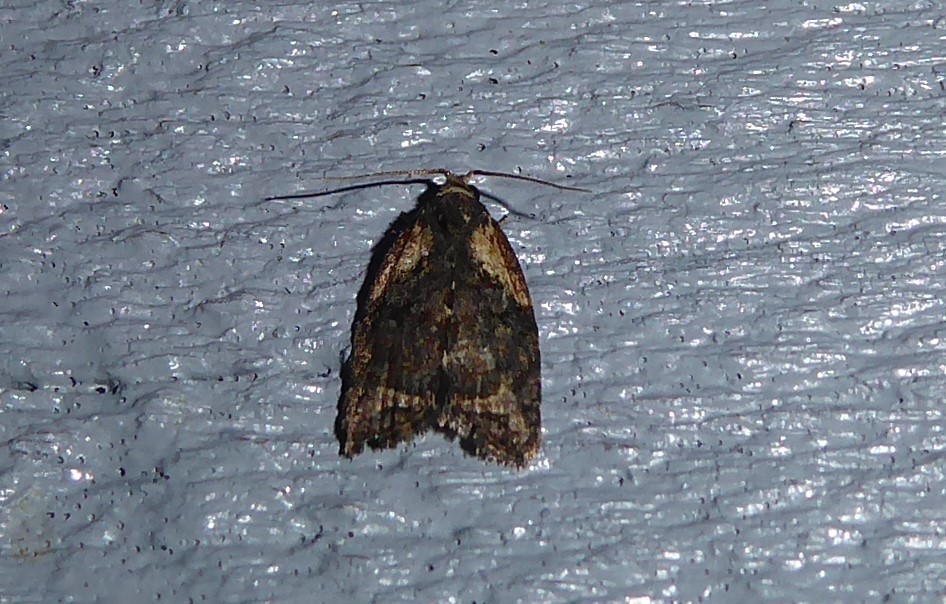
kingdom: Animalia
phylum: Arthropoda
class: Insecta
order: Lepidoptera
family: Tortricidae
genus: Capua
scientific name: Capua intractana
